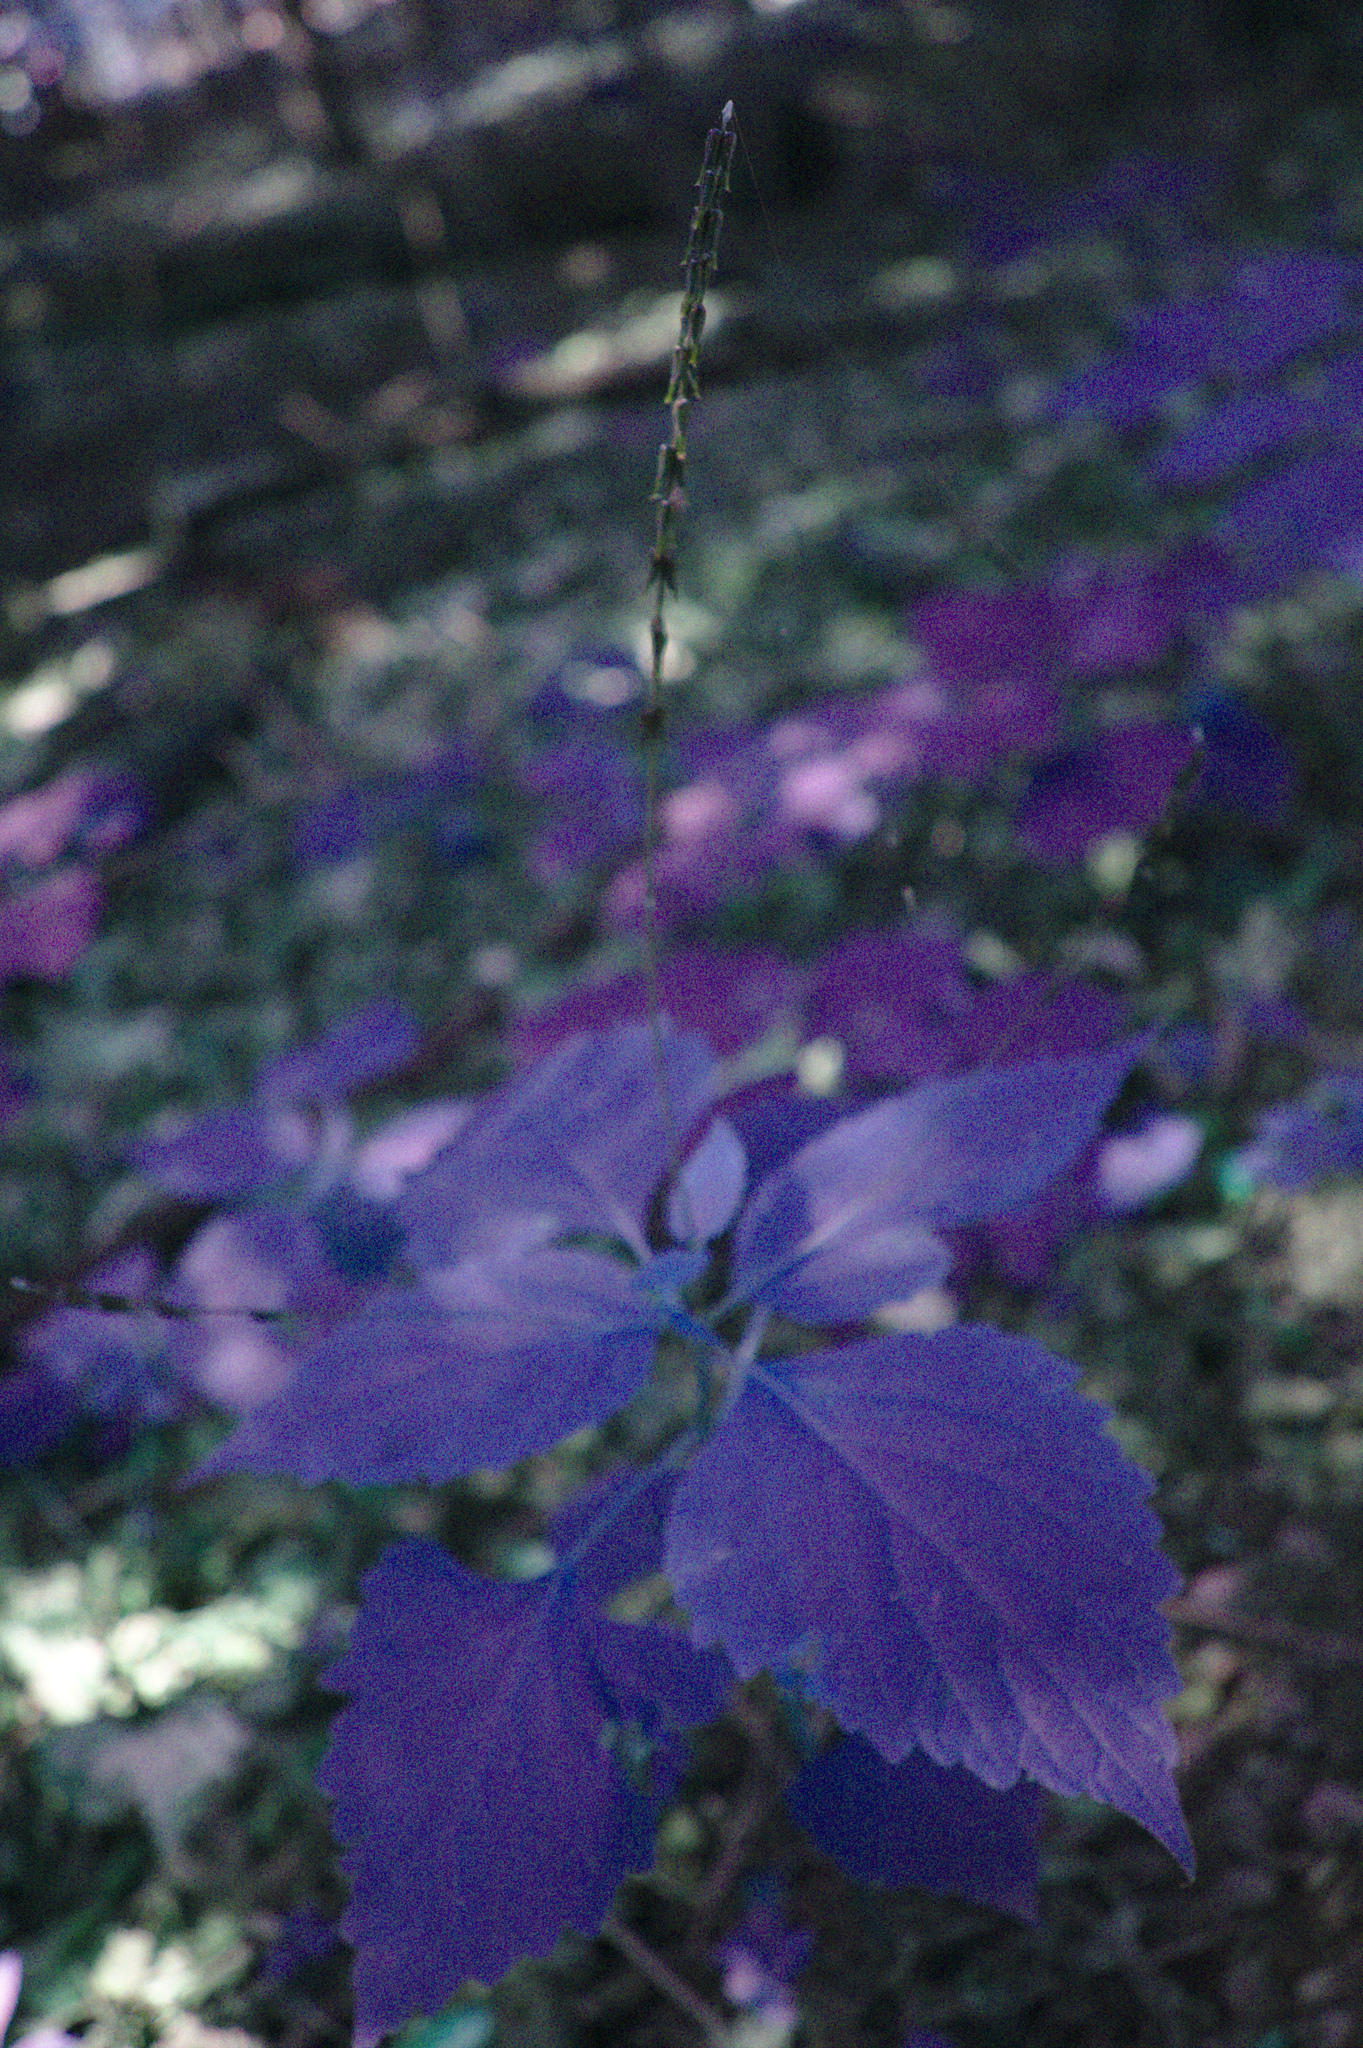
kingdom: Plantae
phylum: Tracheophyta
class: Magnoliopsida
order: Lamiales
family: Phrymaceae
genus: Phryma
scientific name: Phryma leptostachya
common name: American lopseed
